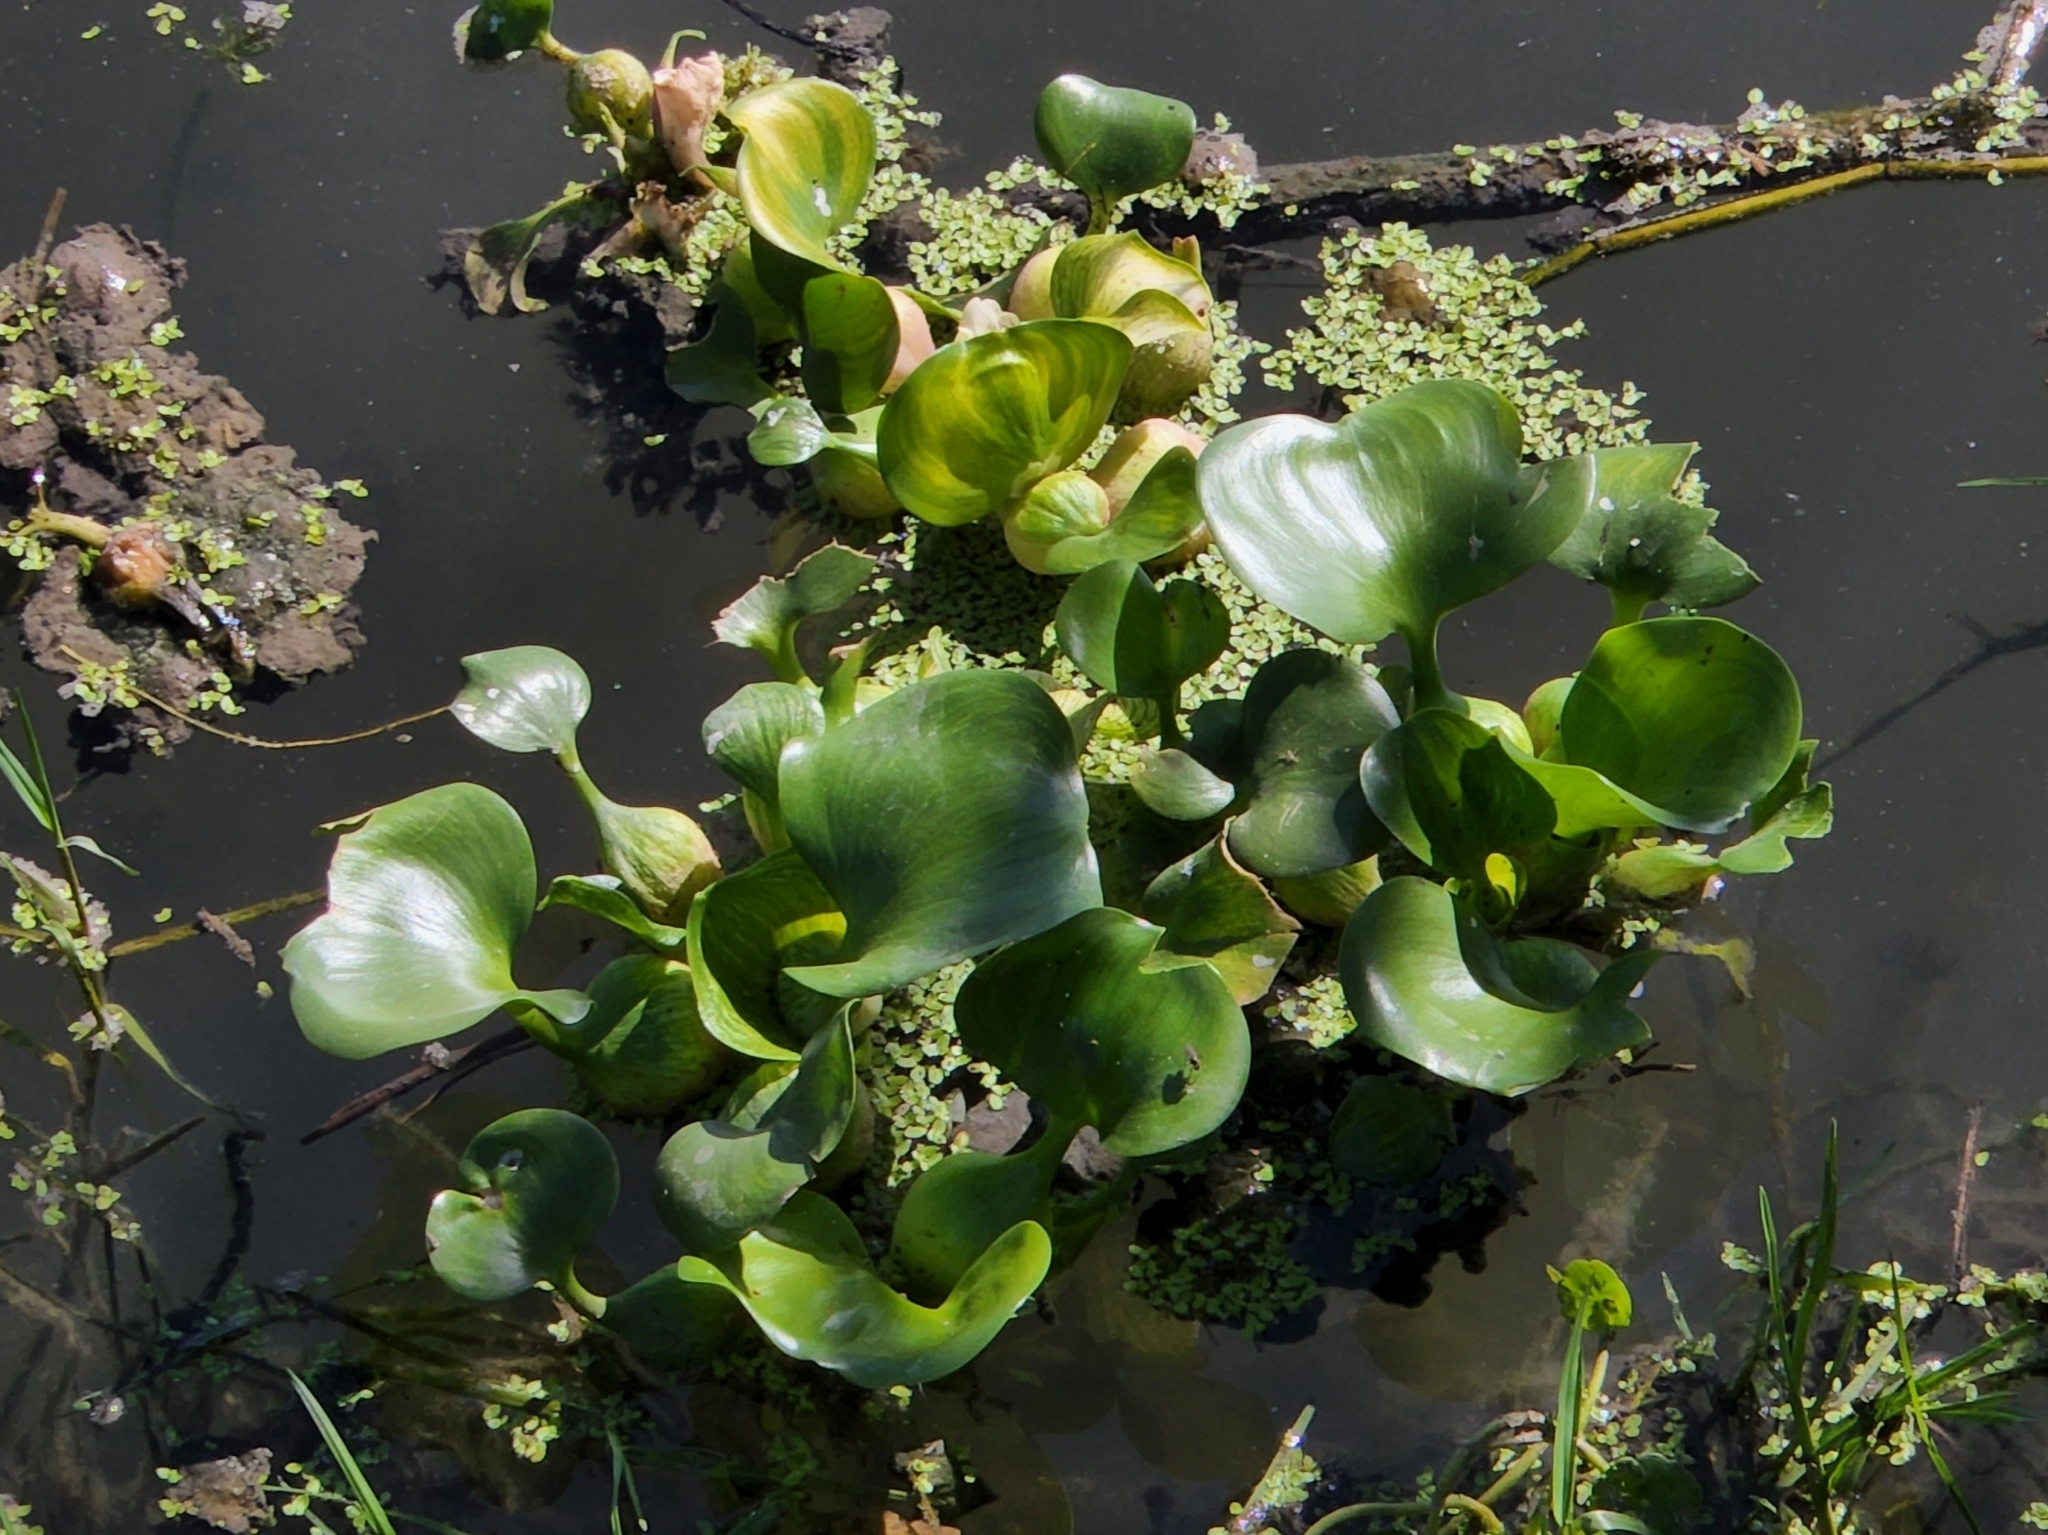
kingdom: Plantae
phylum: Tracheophyta
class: Liliopsida
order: Commelinales
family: Pontederiaceae
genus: Pontederia
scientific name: Pontederia crassipes
